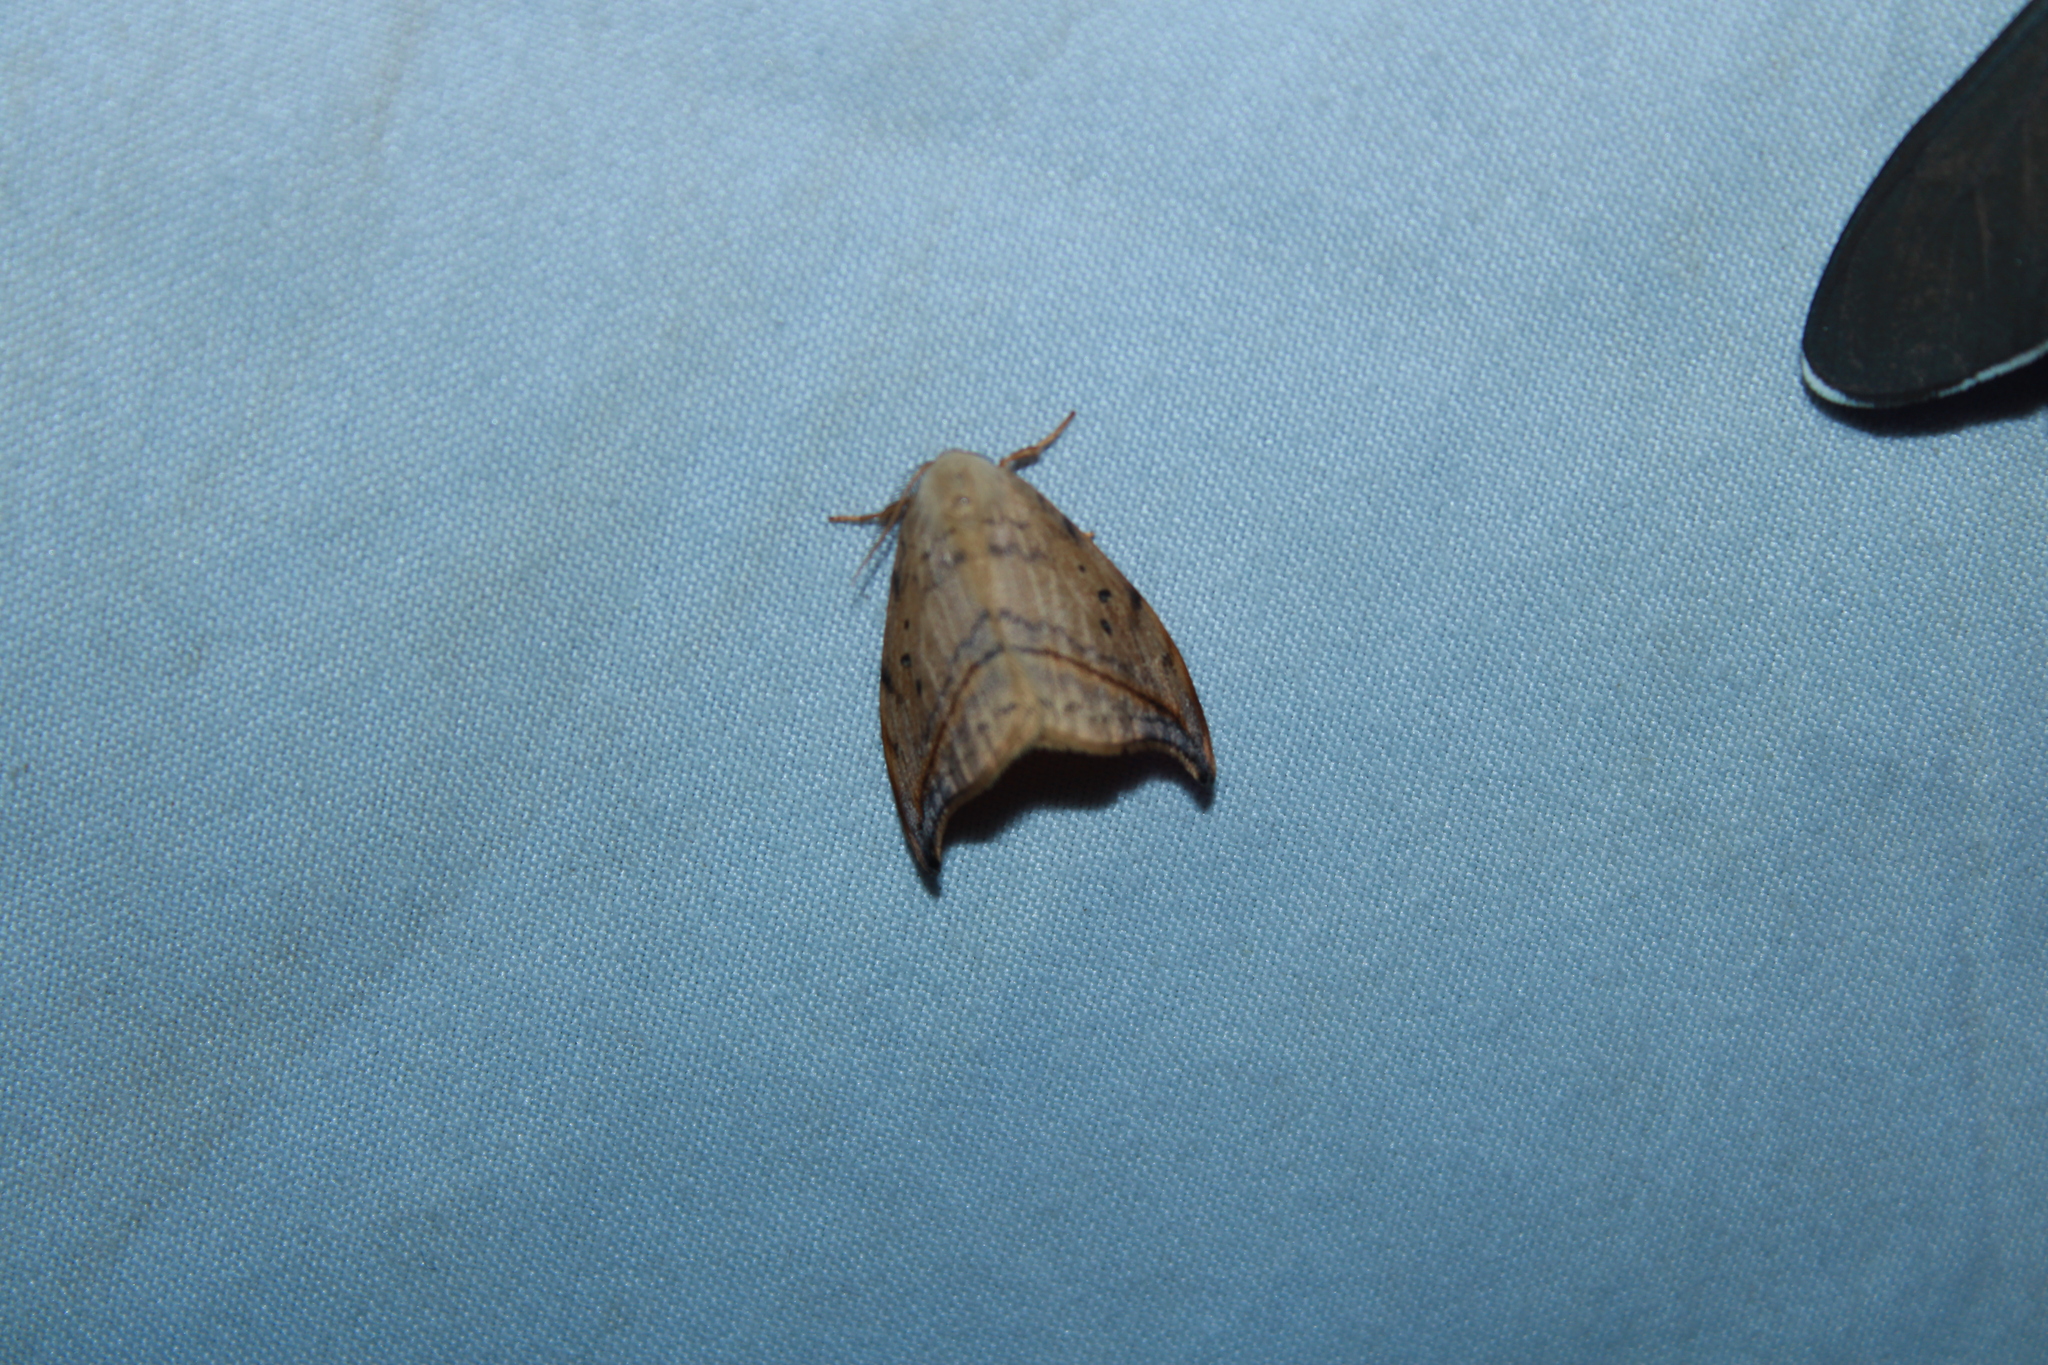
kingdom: Animalia
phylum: Arthropoda
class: Insecta
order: Lepidoptera
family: Drepanidae
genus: Drepana
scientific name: Drepana arcuata
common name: Arched hooktip moth
